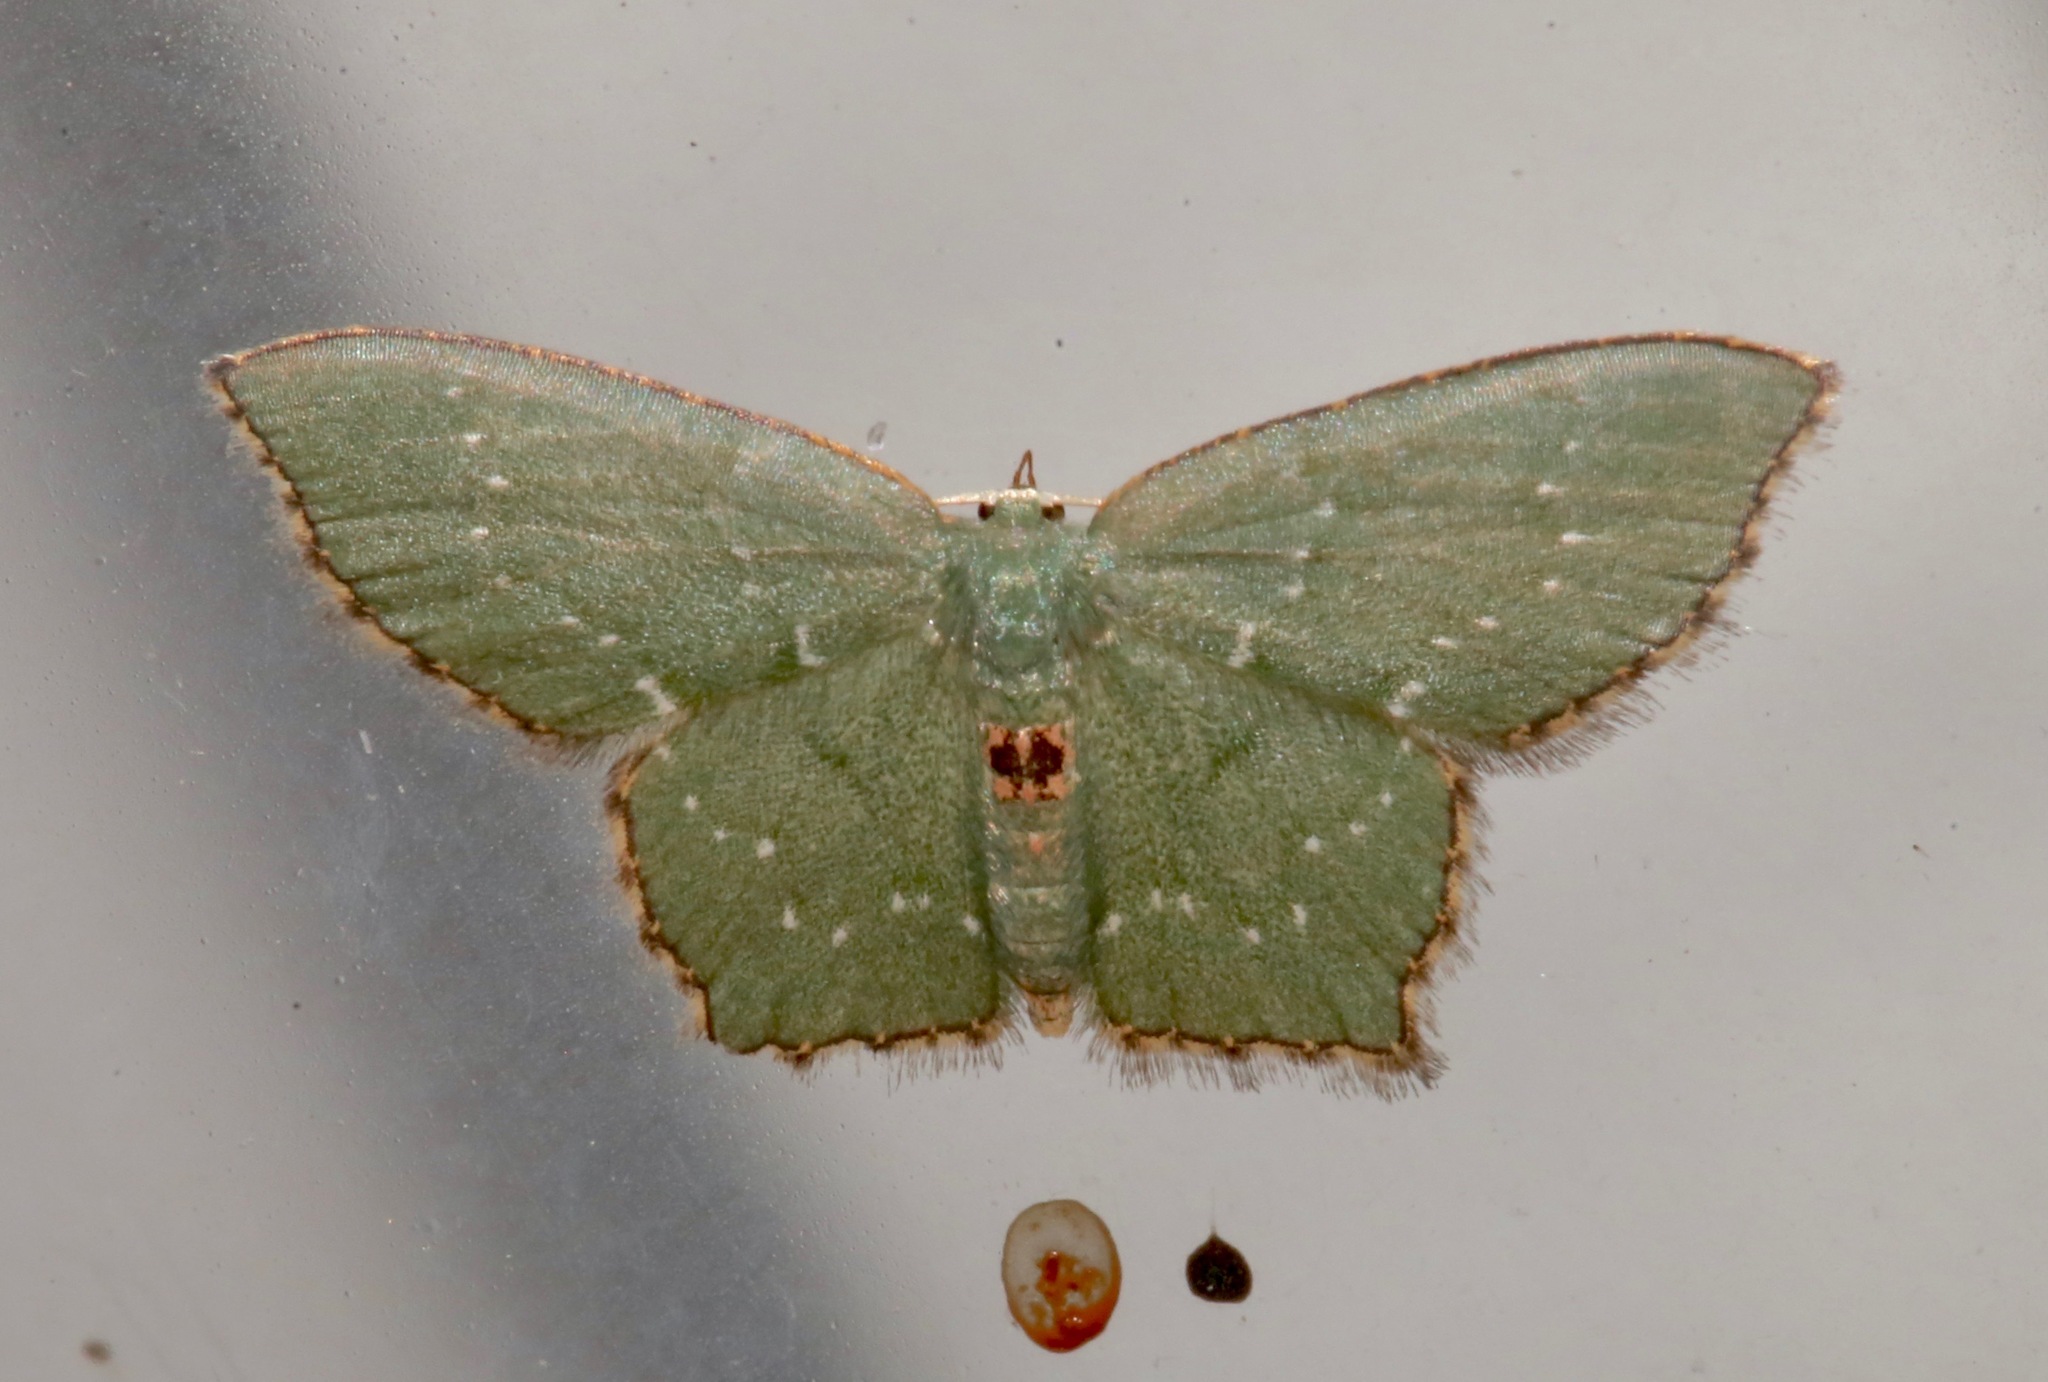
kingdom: Animalia
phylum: Arthropoda
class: Insecta
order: Lepidoptera
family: Geometridae
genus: Chloropteryx
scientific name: Chloropteryx tepperaria
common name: Angle winged emerald moth
